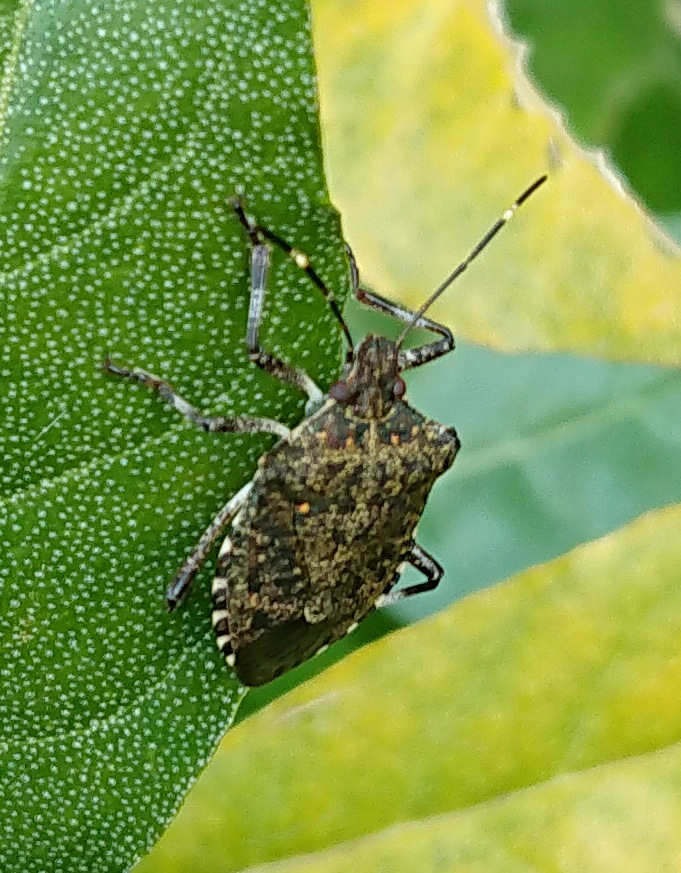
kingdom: Animalia
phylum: Arthropoda
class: Insecta
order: Hemiptera
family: Pentatomidae
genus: Halyomorpha
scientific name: Halyomorpha halys
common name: Brown marmorated stink bug
